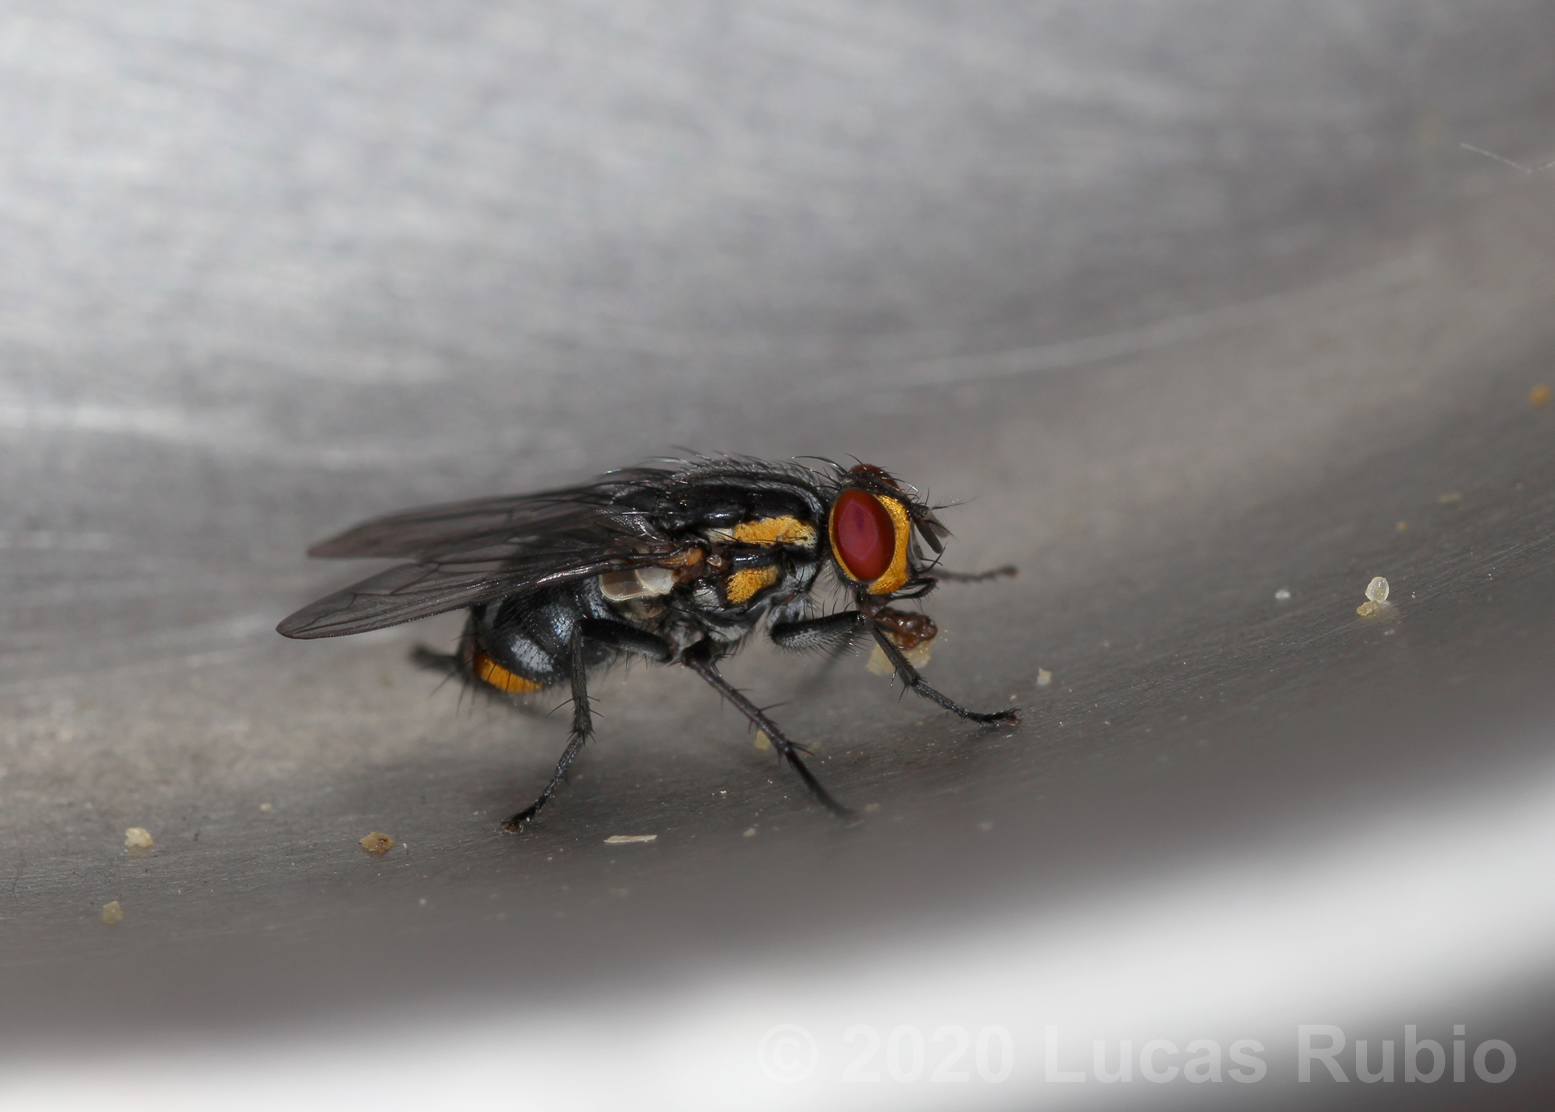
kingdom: Animalia
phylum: Arthropoda
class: Insecta
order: Diptera
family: Sarcophagidae
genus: Oxysarcodexia
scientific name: Oxysarcodexia culmiforceps
